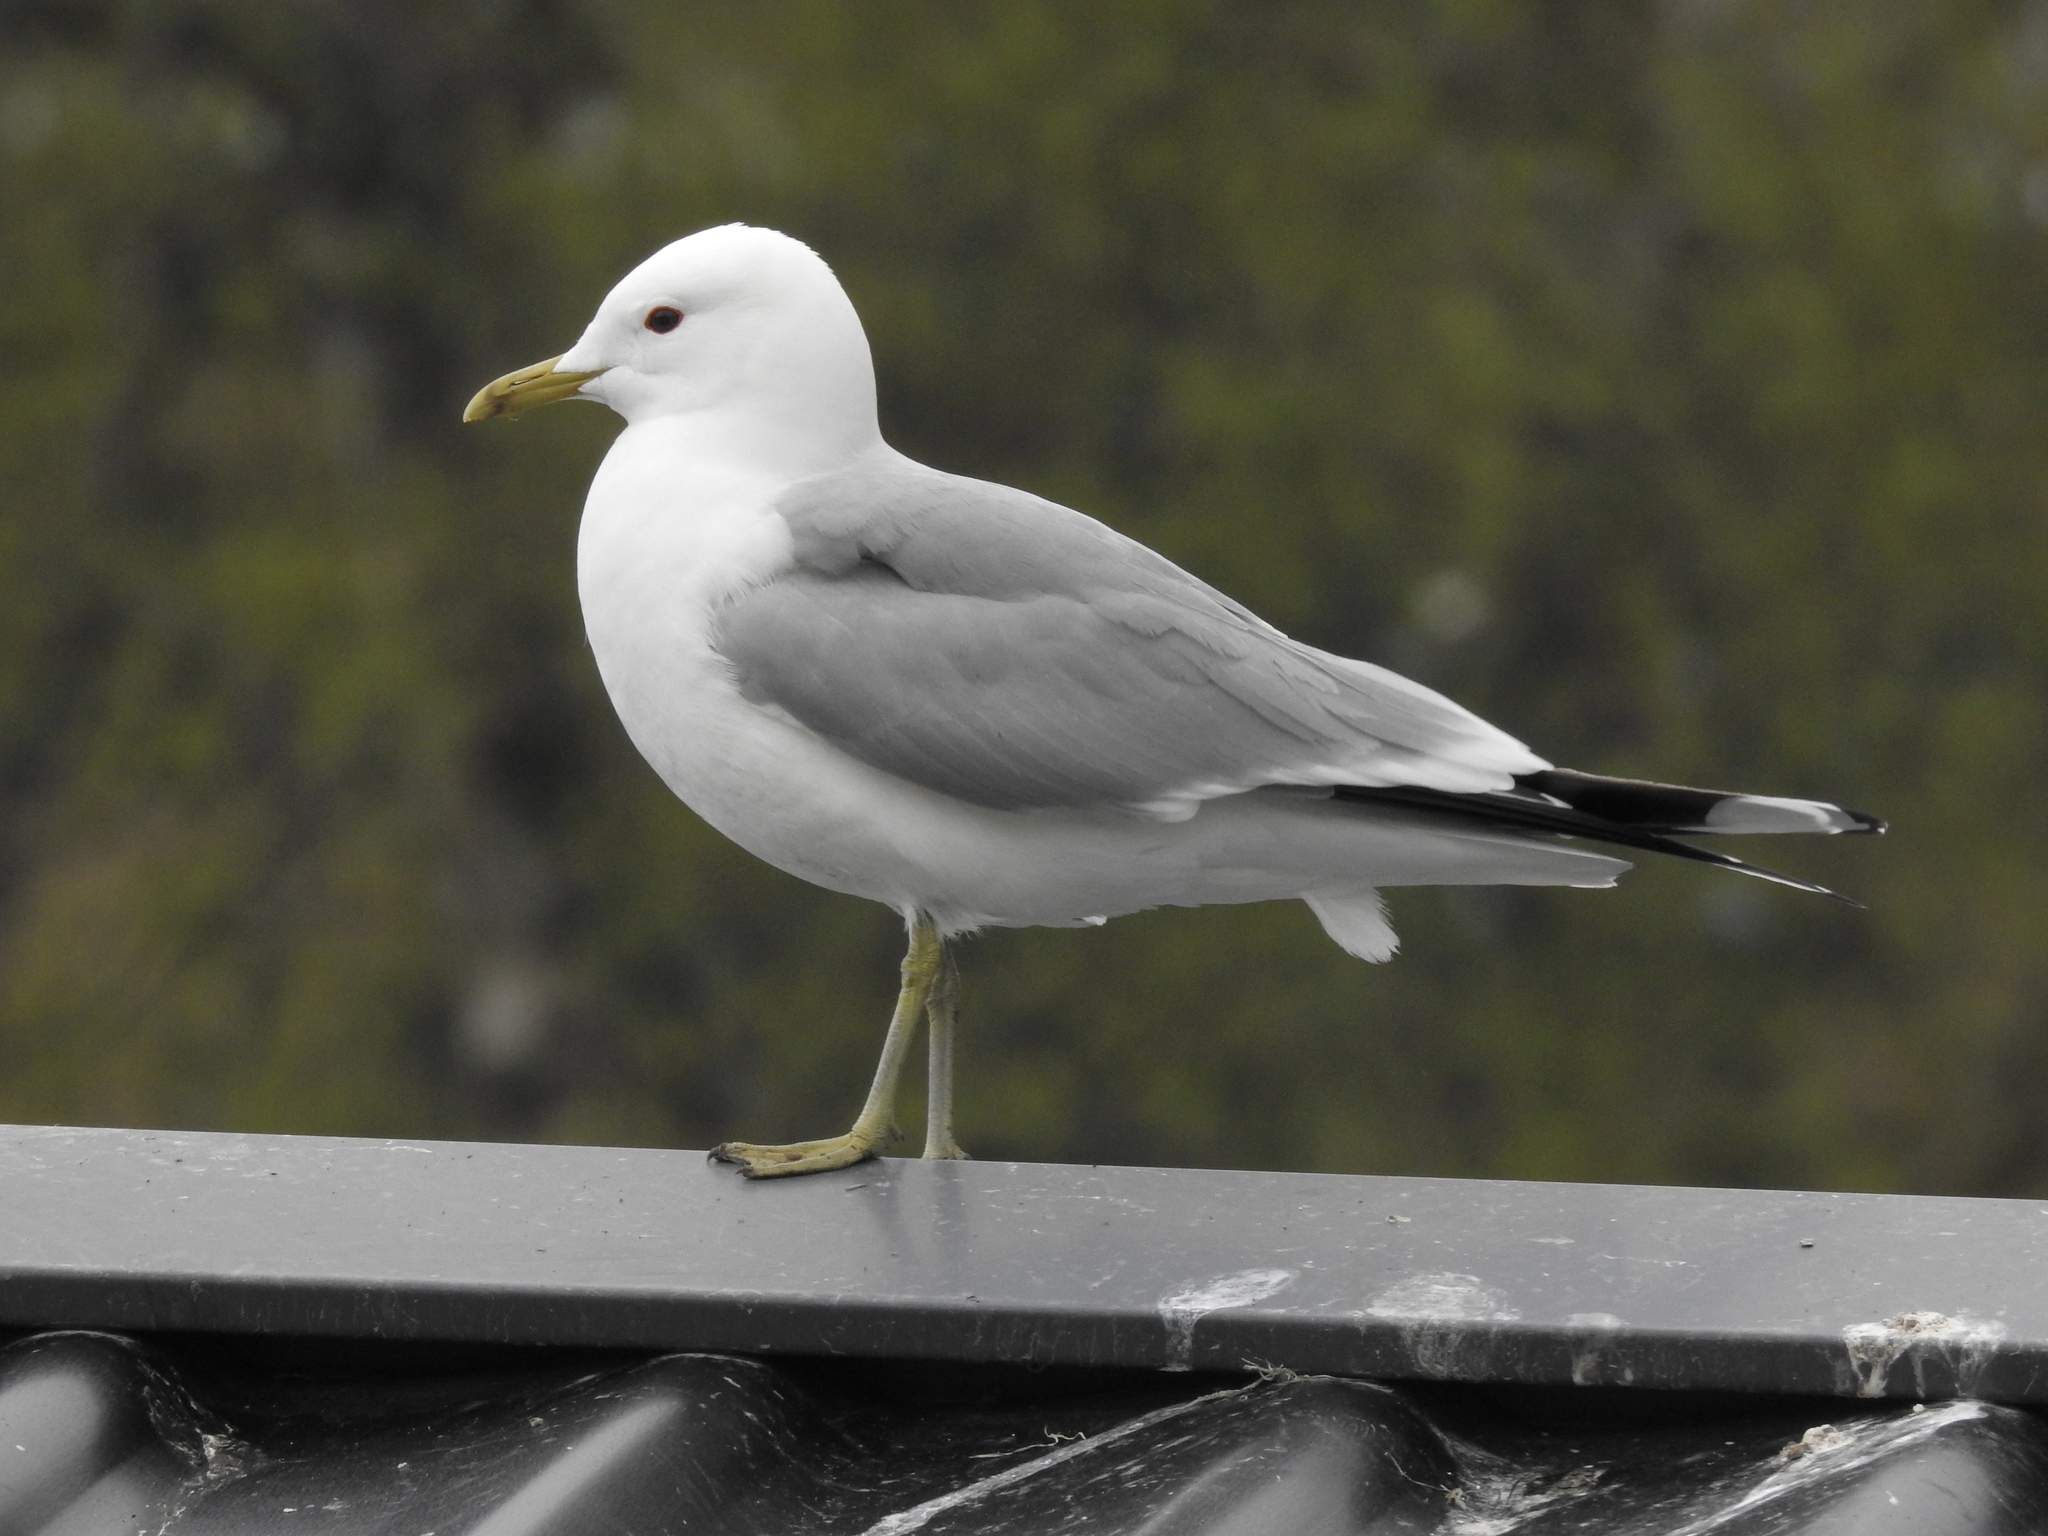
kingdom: Animalia
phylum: Chordata
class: Aves
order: Charadriiformes
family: Laridae
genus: Larus
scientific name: Larus canus
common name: Mew gull
